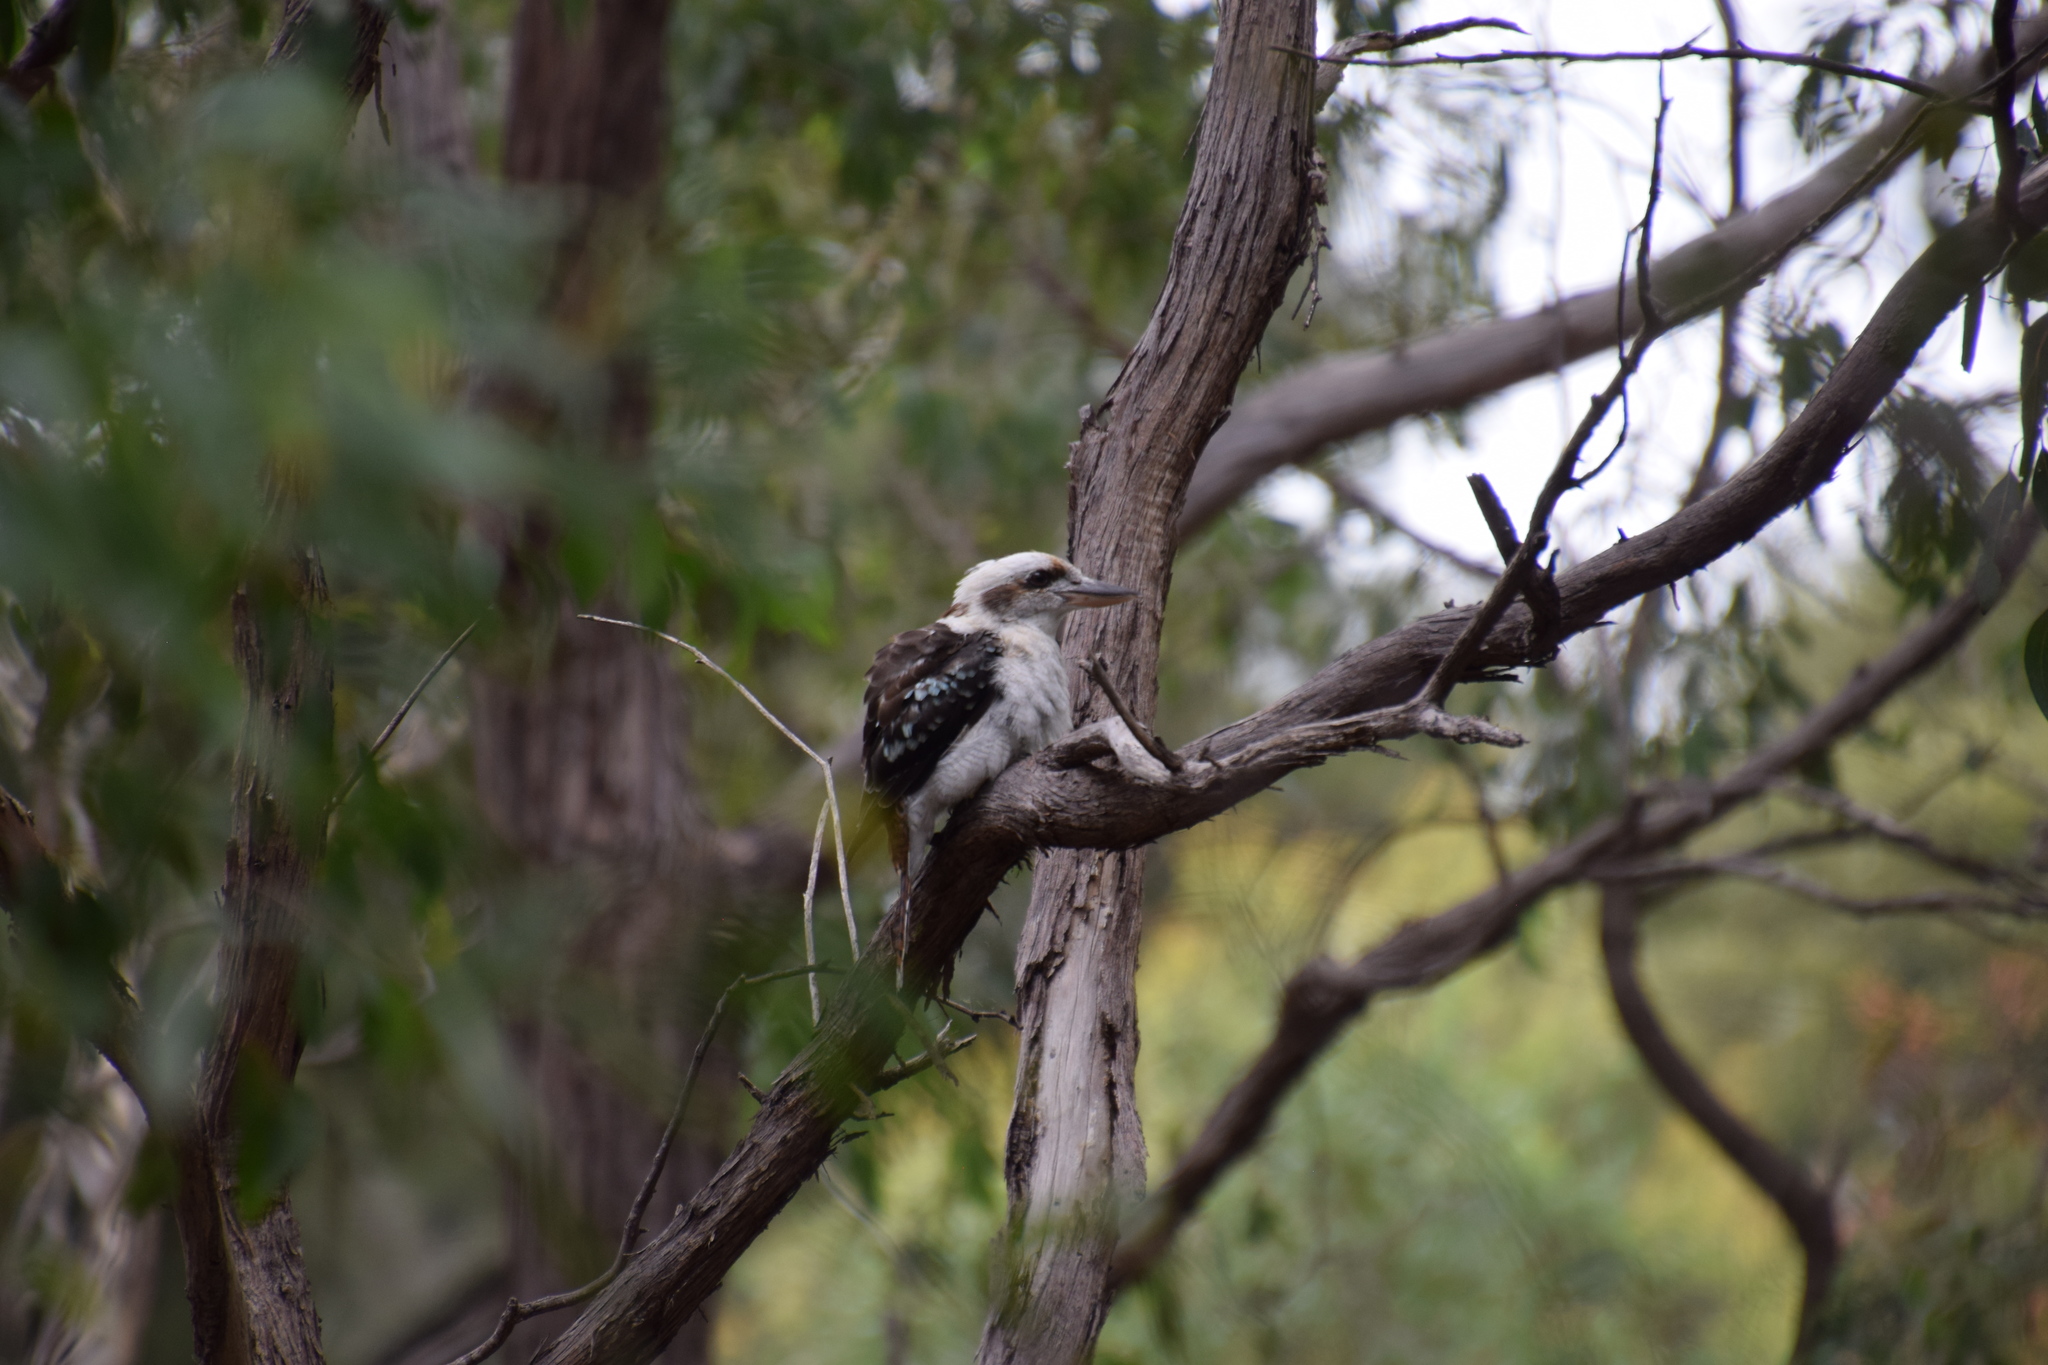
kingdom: Animalia
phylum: Chordata
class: Aves
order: Coraciiformes
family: Alcedinidae
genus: Dacelo
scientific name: Dacelo novaeguineae
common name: Laughing kookaburra
